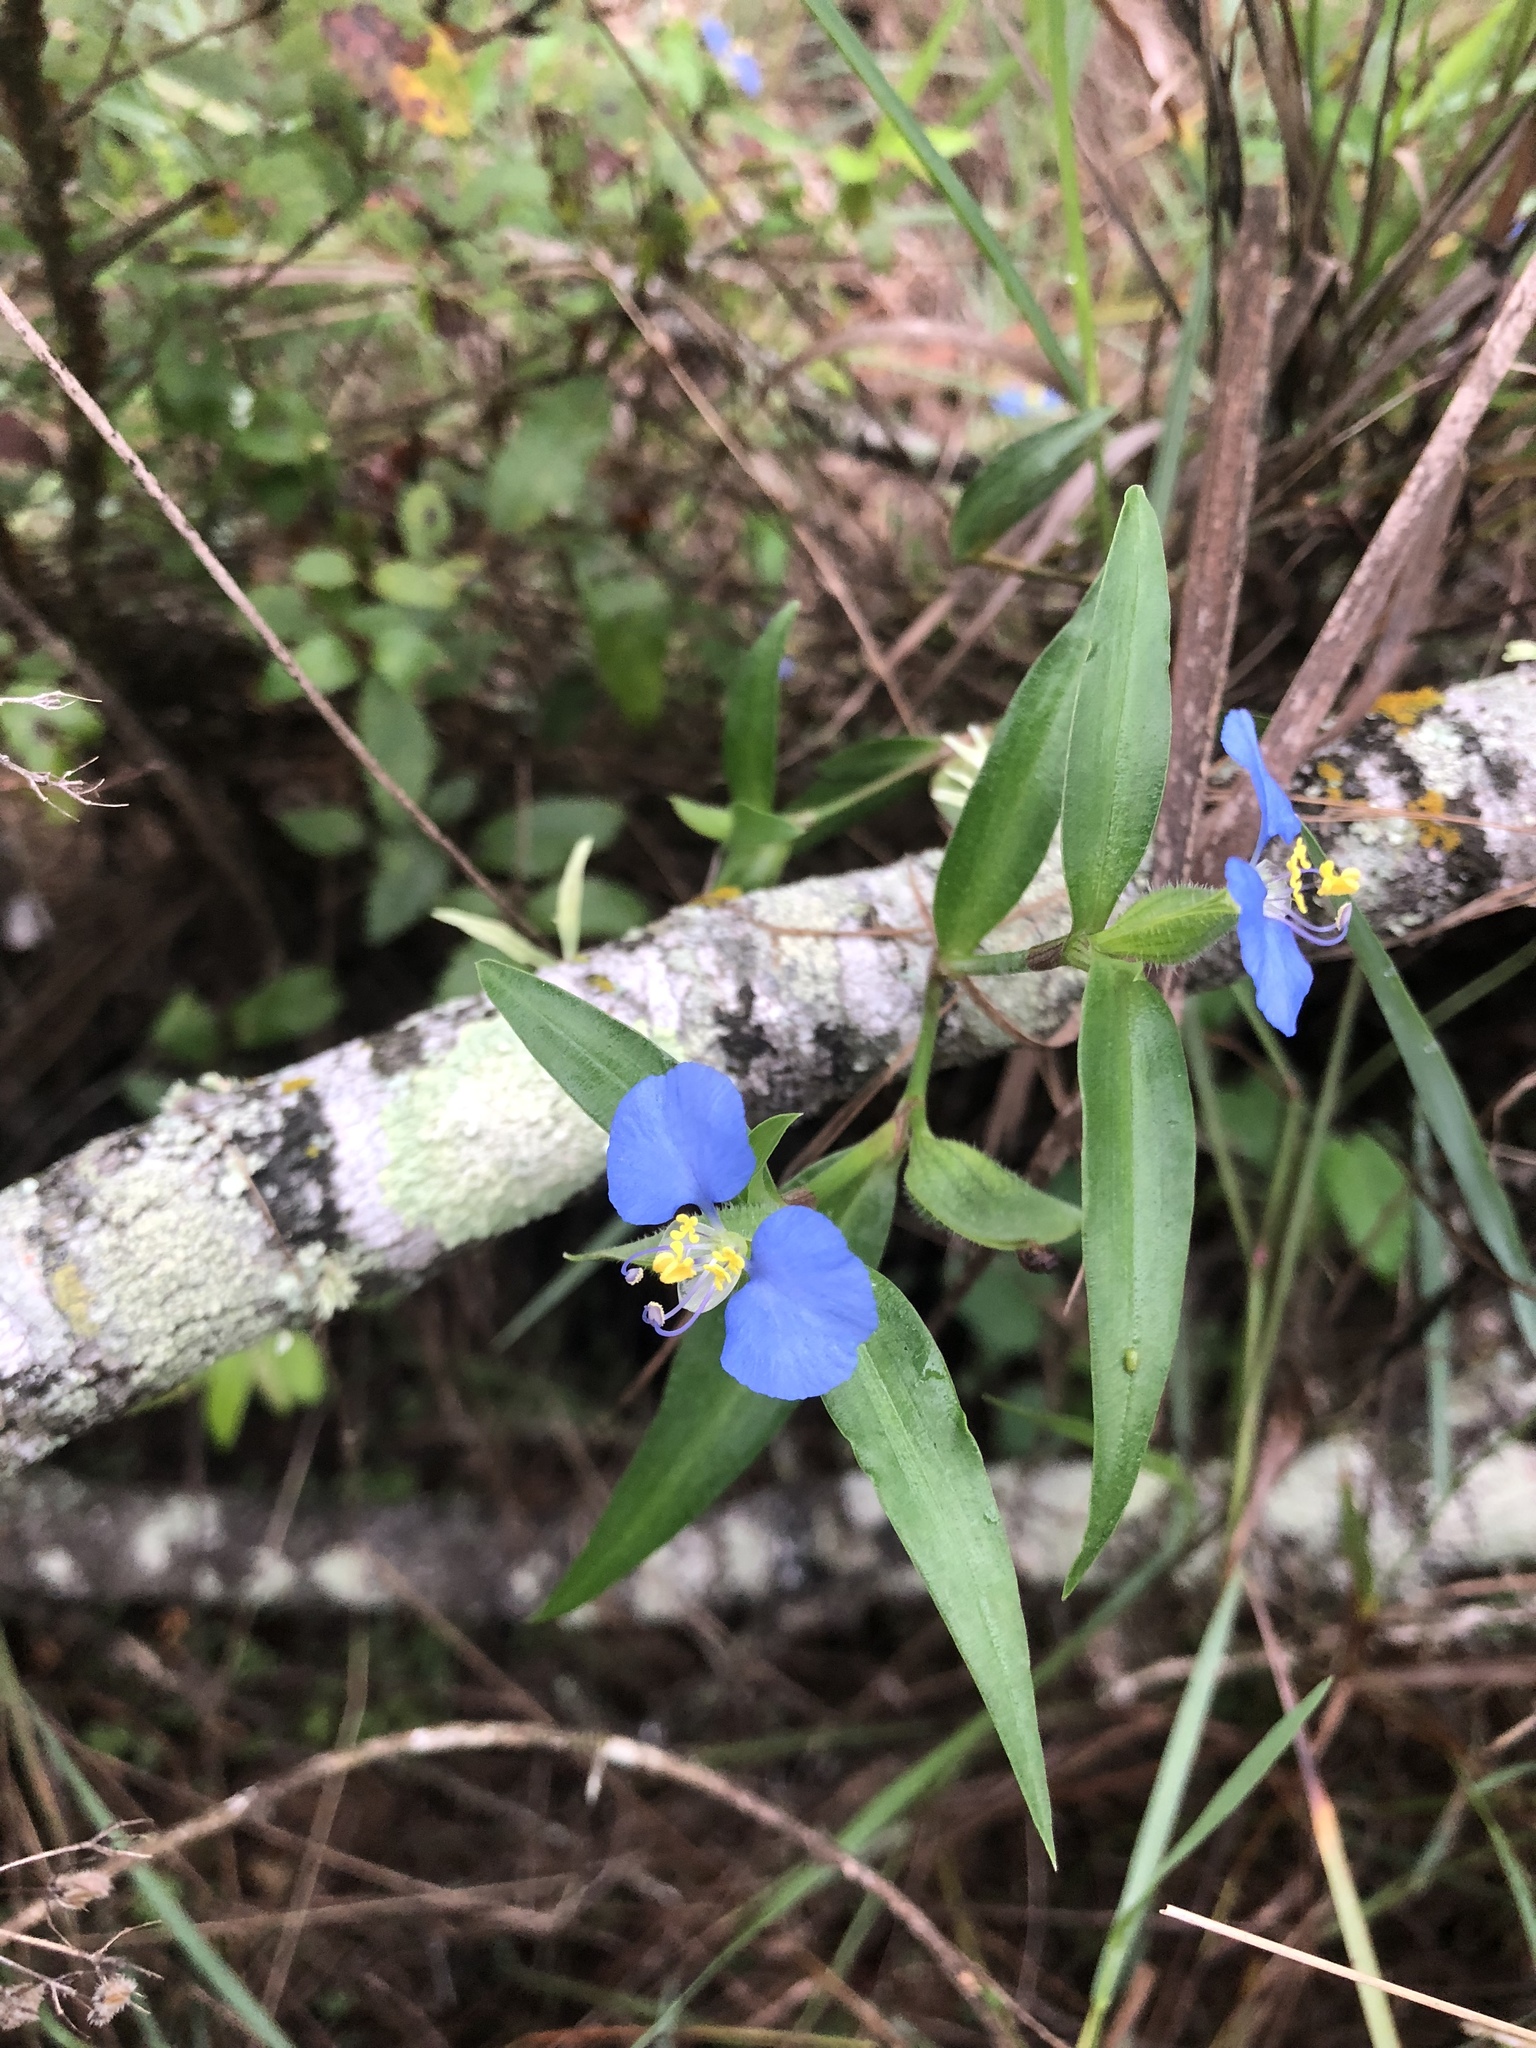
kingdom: Plantae
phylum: Tracheophyta
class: Liliopsida
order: Commelinales
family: Commelinaceae
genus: Commelina
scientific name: Commelina erecta
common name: Blousel blommetjie
